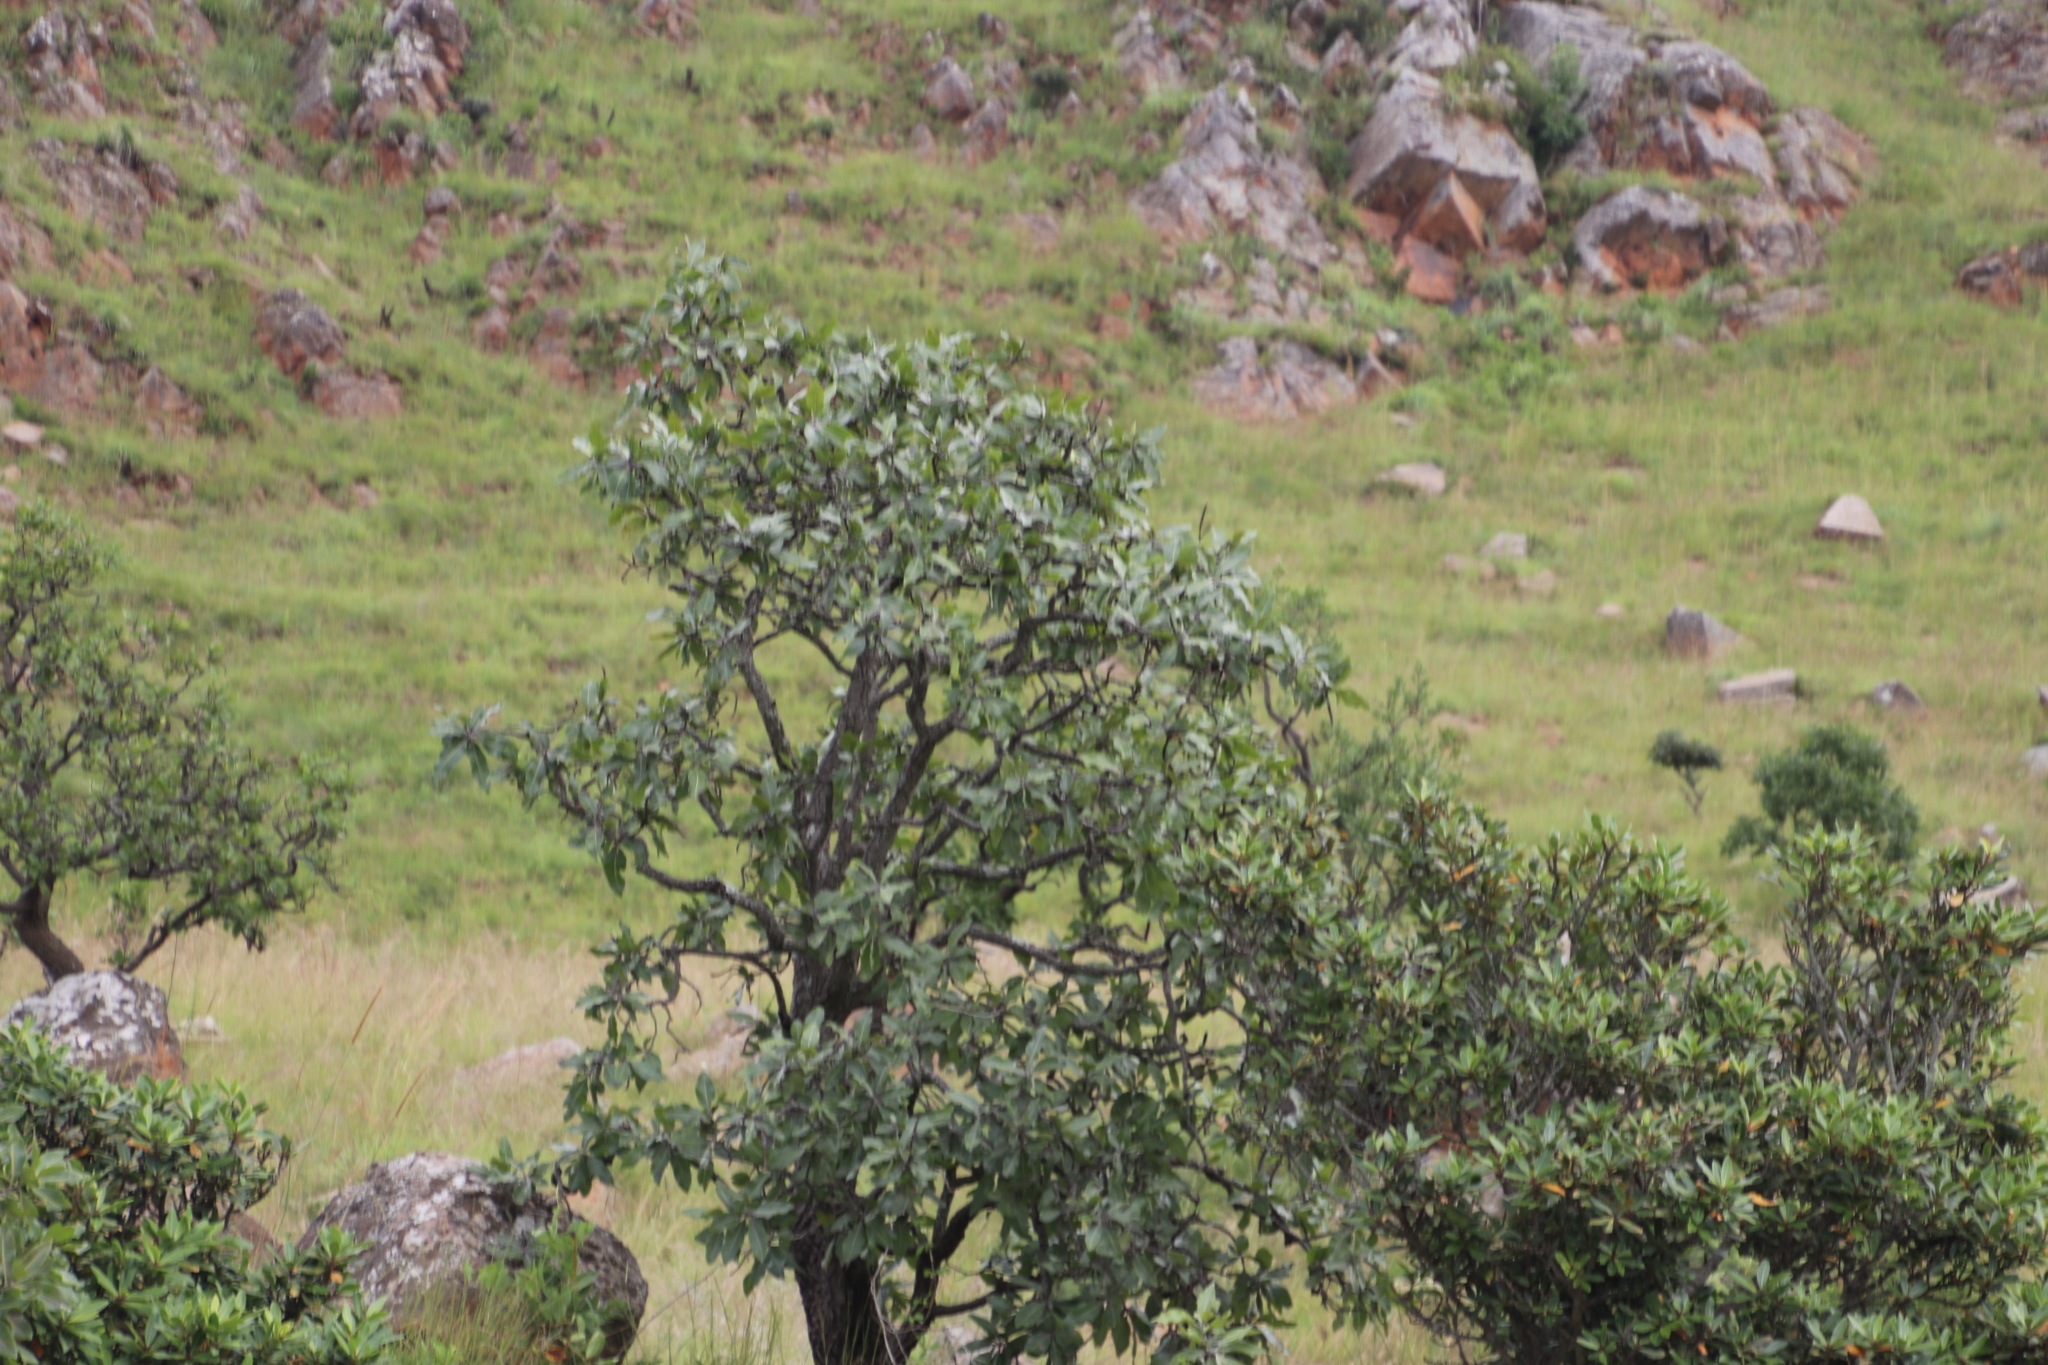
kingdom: Plantae
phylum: Tracheophyta
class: Magnoliopsida
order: Proteales
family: Proteaceae
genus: Faurea
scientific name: Faurea rochetiana
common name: Broad-leaved beech
